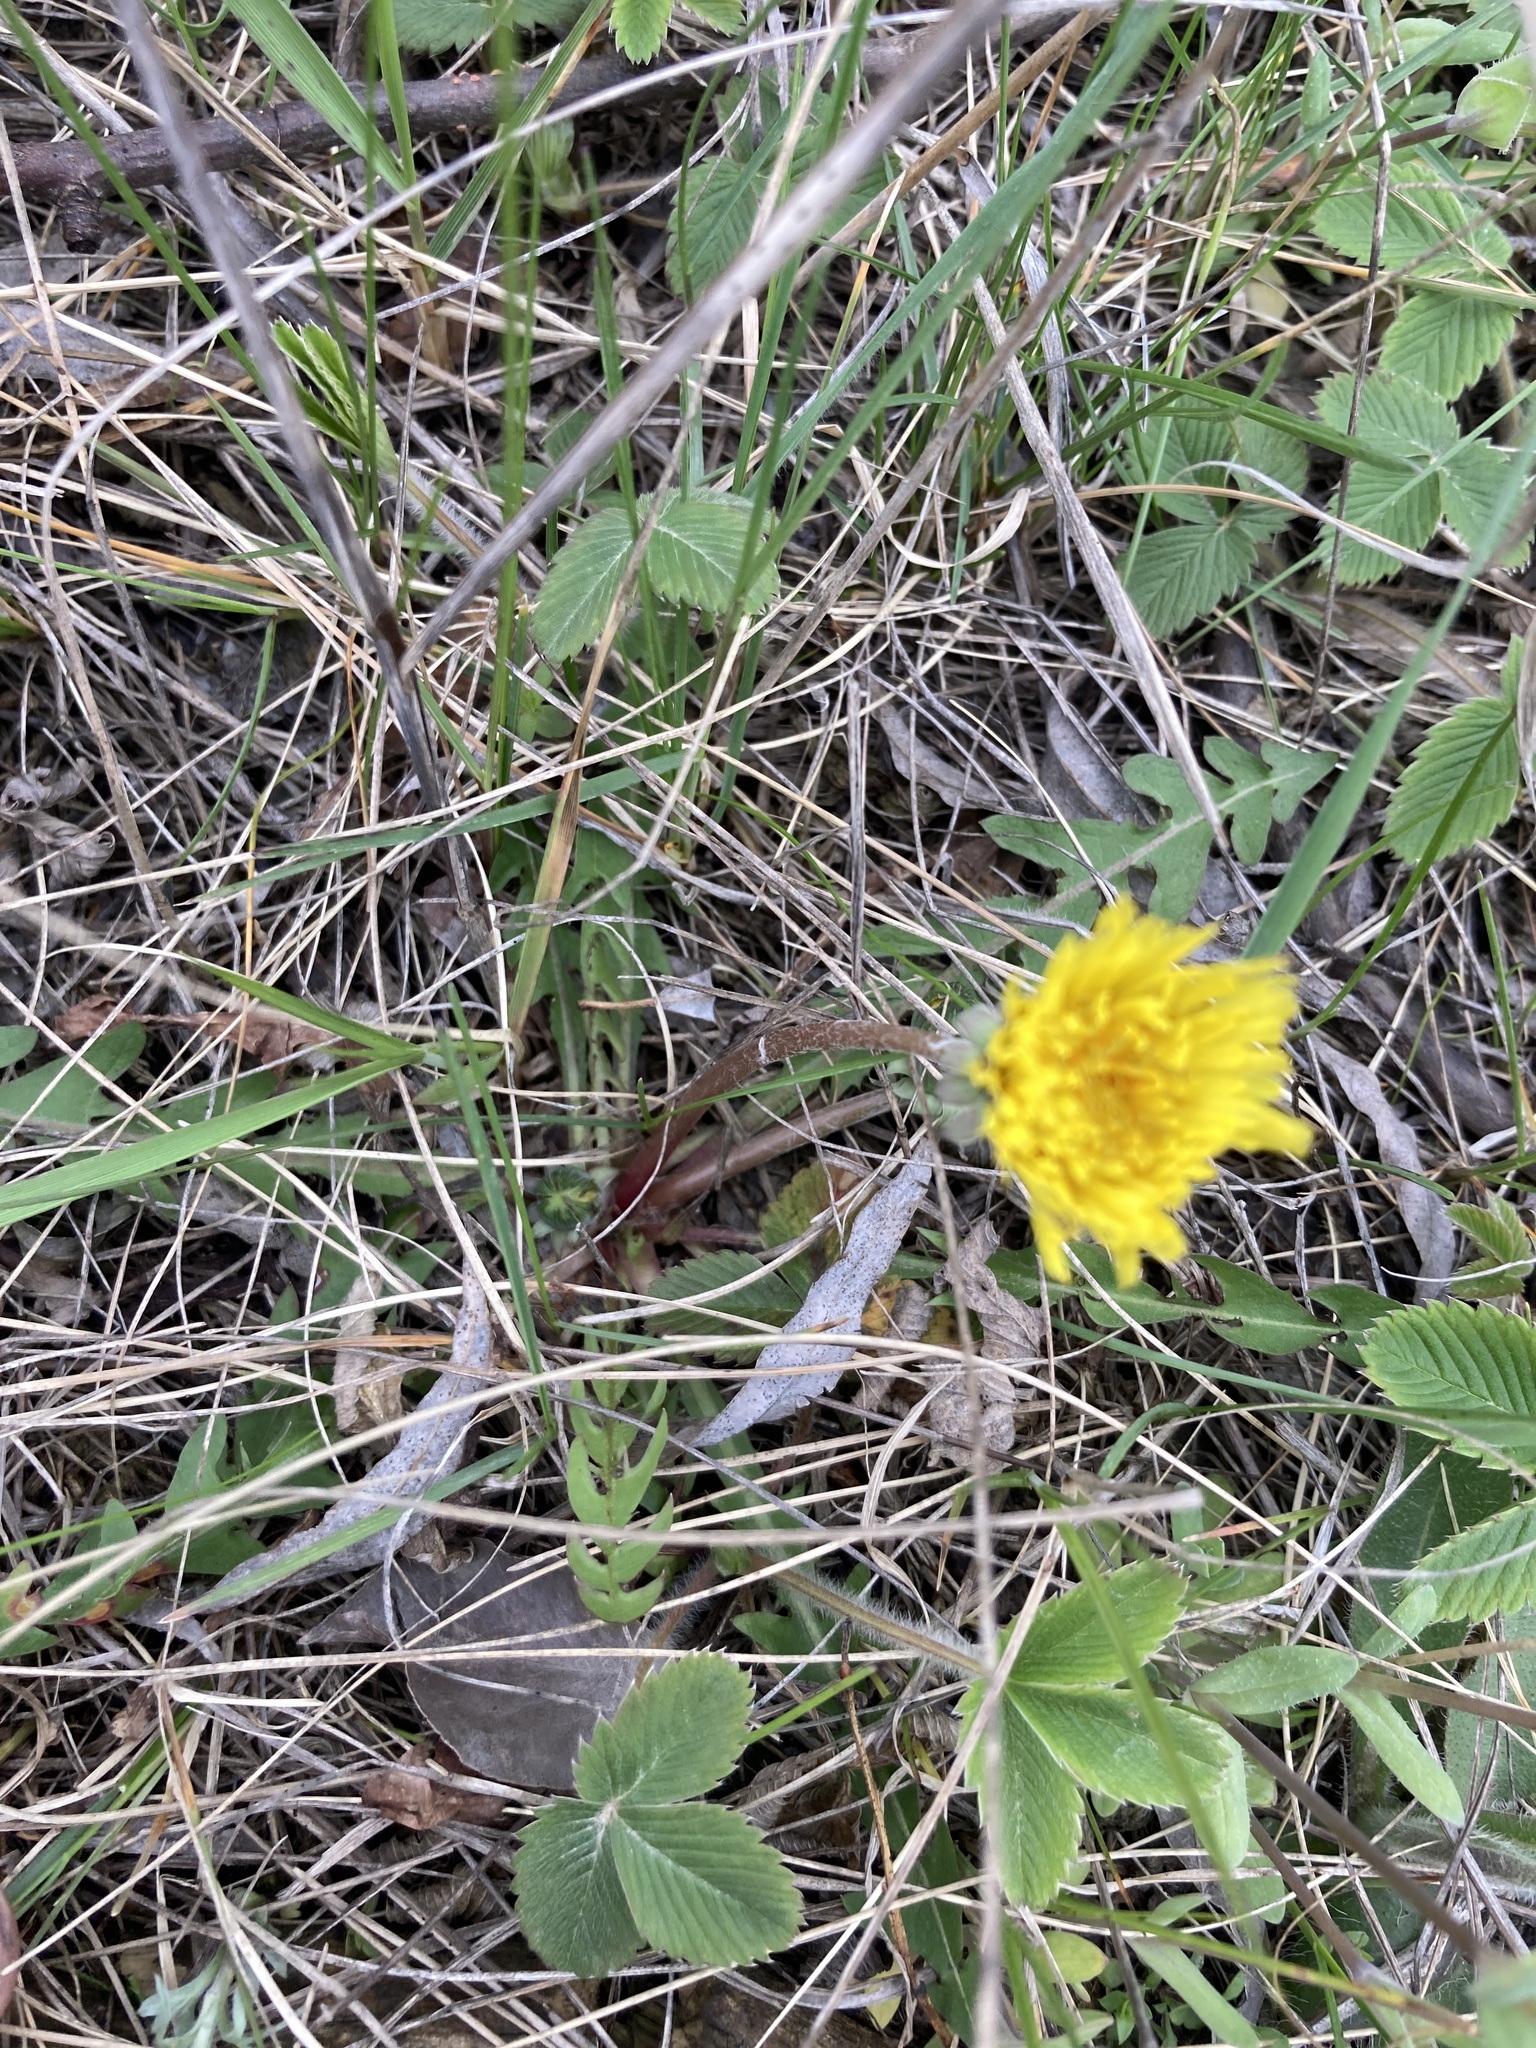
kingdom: Plantae
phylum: Tracheophyta
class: Magnoliopsida
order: Asterales
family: Asteraceae
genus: Taraxacum
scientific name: Taraxacum officinale
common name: Common dandelion
